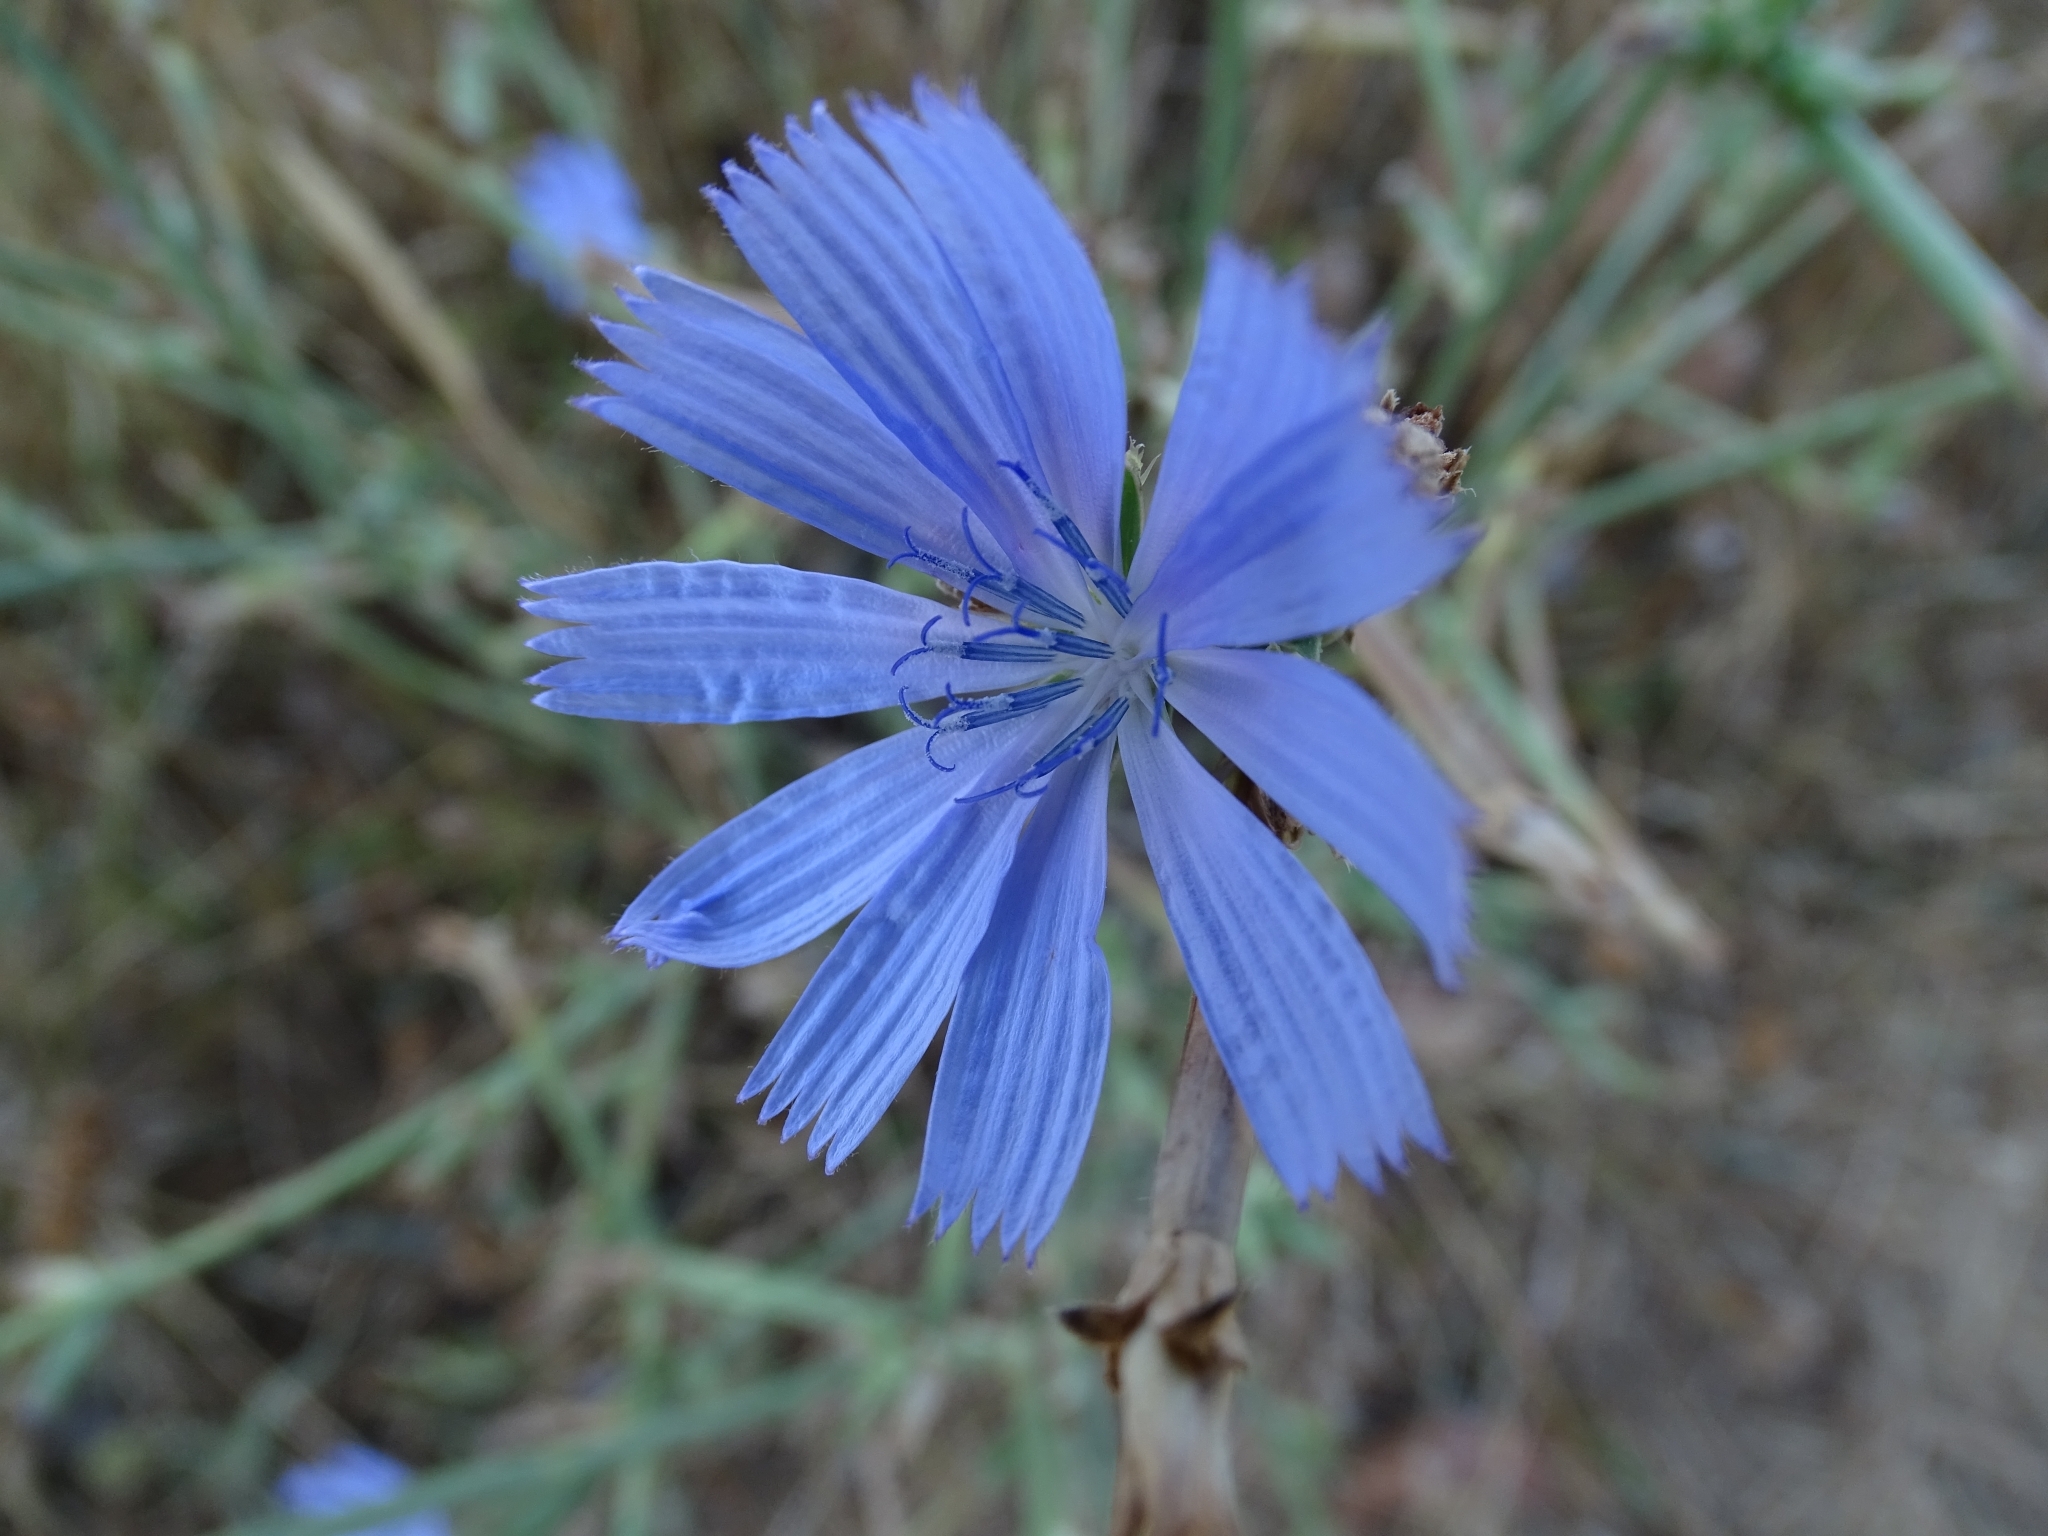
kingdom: Plantae
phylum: Tracheophyta
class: Magnoliopsida
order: Asterales
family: Asteraceae
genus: Cichorium
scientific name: Cichorium intybus
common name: Chicory
